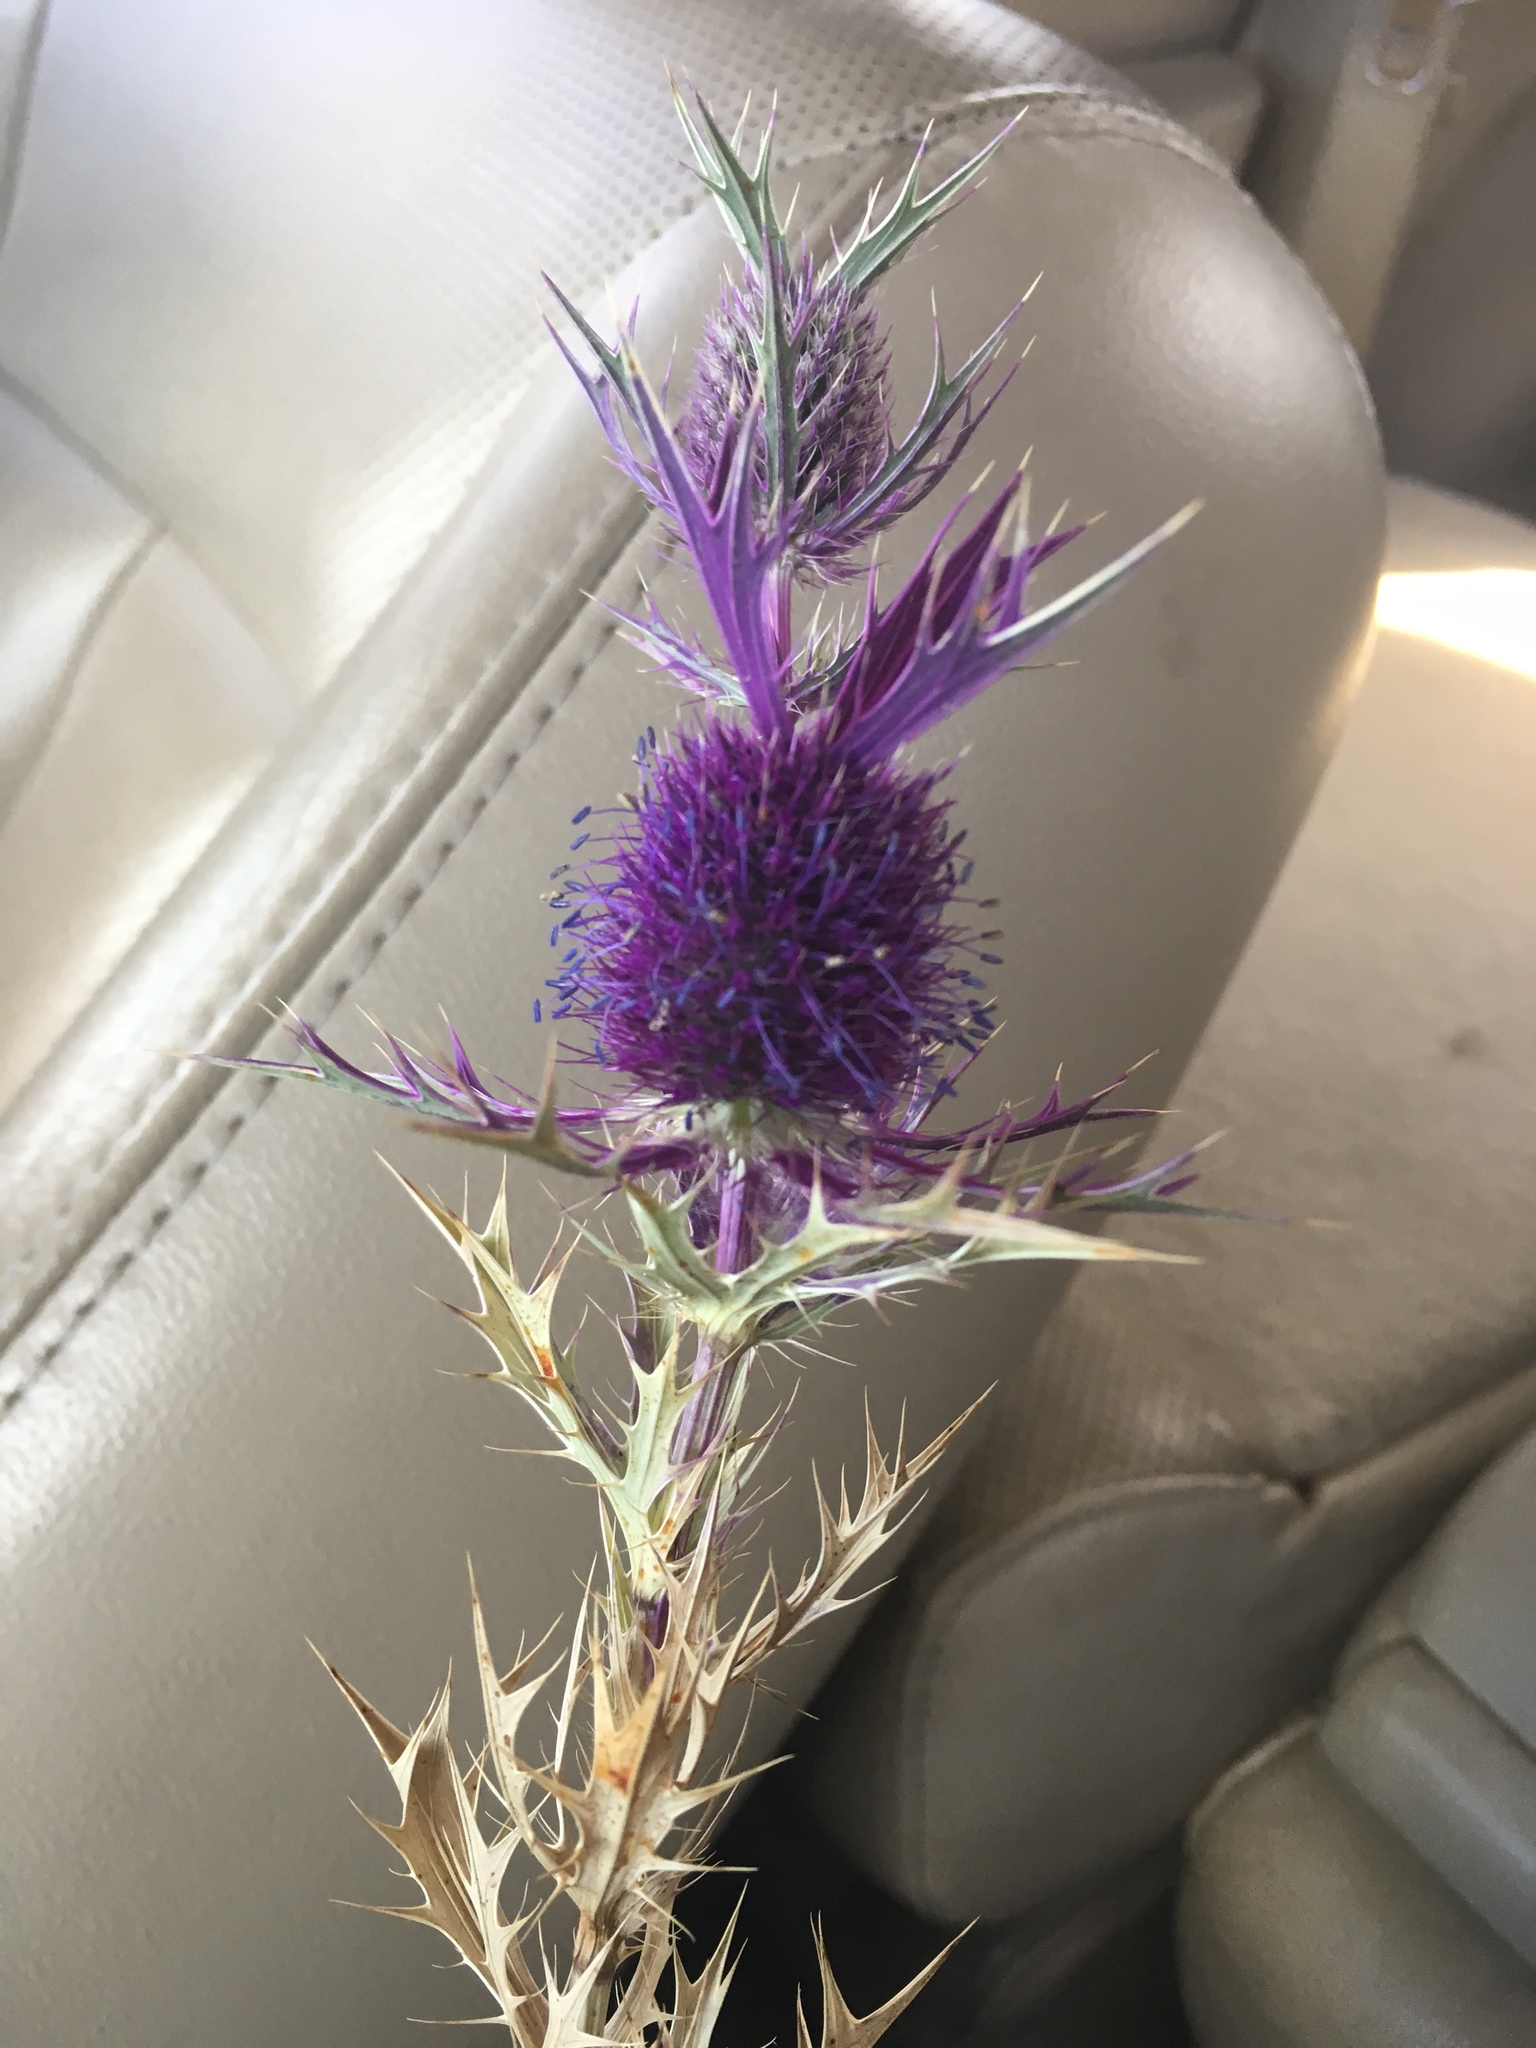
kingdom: Plantae
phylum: Tracheophyta
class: Magnoliopsida
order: Apiales
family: Apiaceae
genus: Eryngium
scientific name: Eryngium leavenworthii
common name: Leavenworth's eryngo
